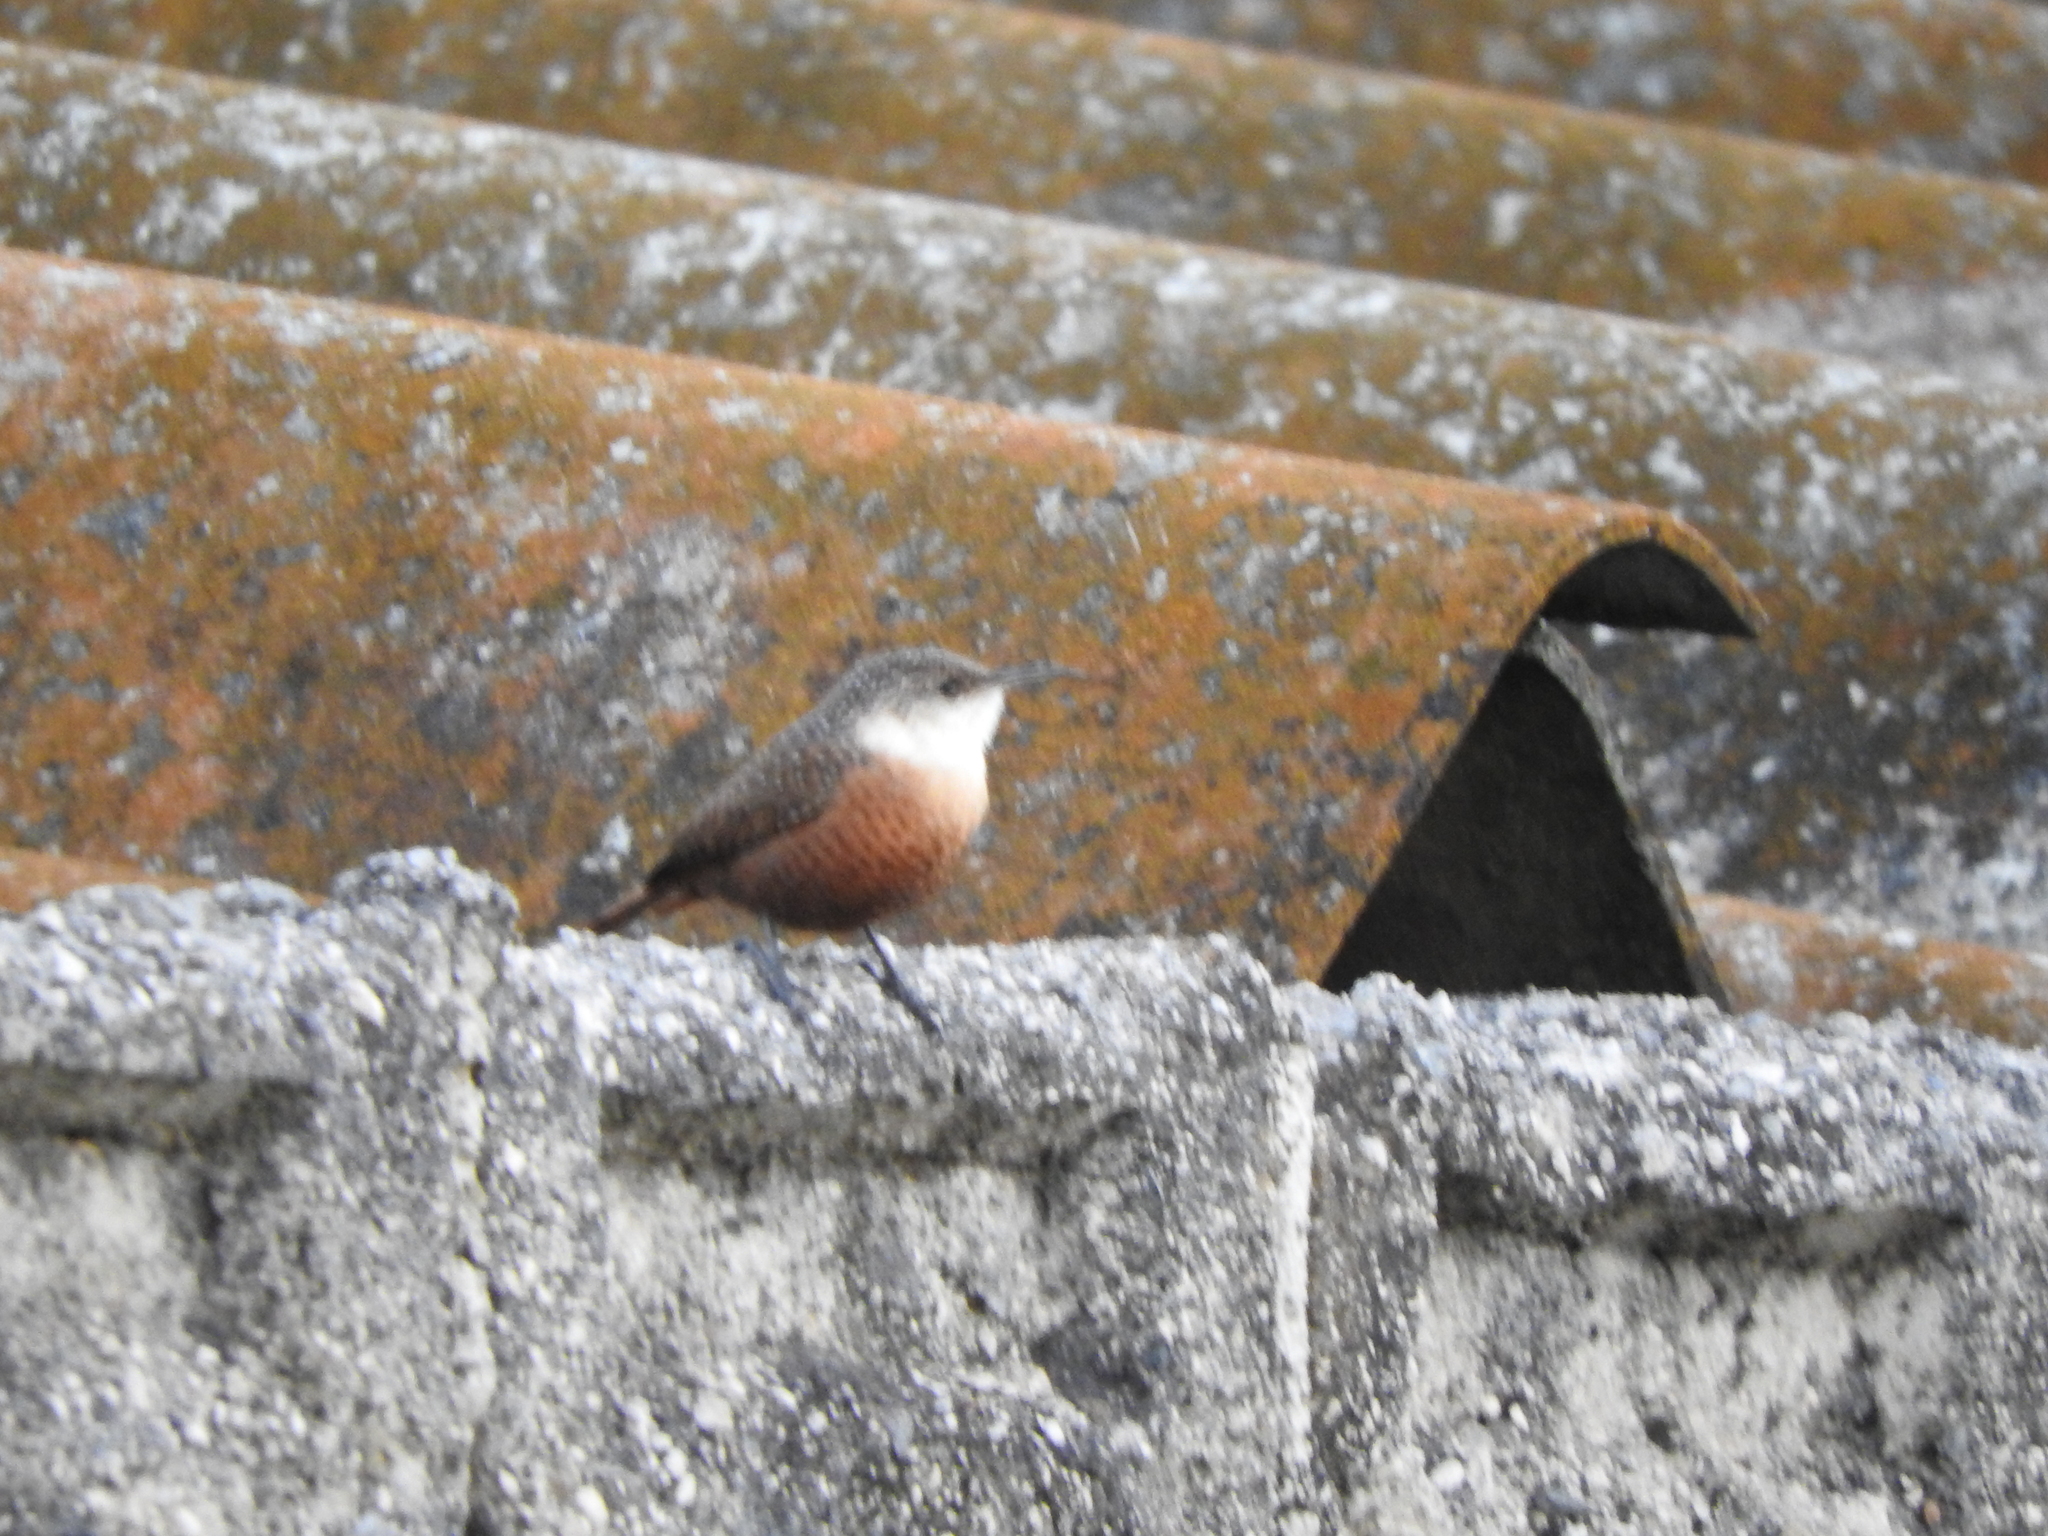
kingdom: Animalia
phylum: Chordata
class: Aves
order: Passeriformes
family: Troglodytidae
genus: Catherpes
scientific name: Catherpes mexicanus
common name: Canyon wren
